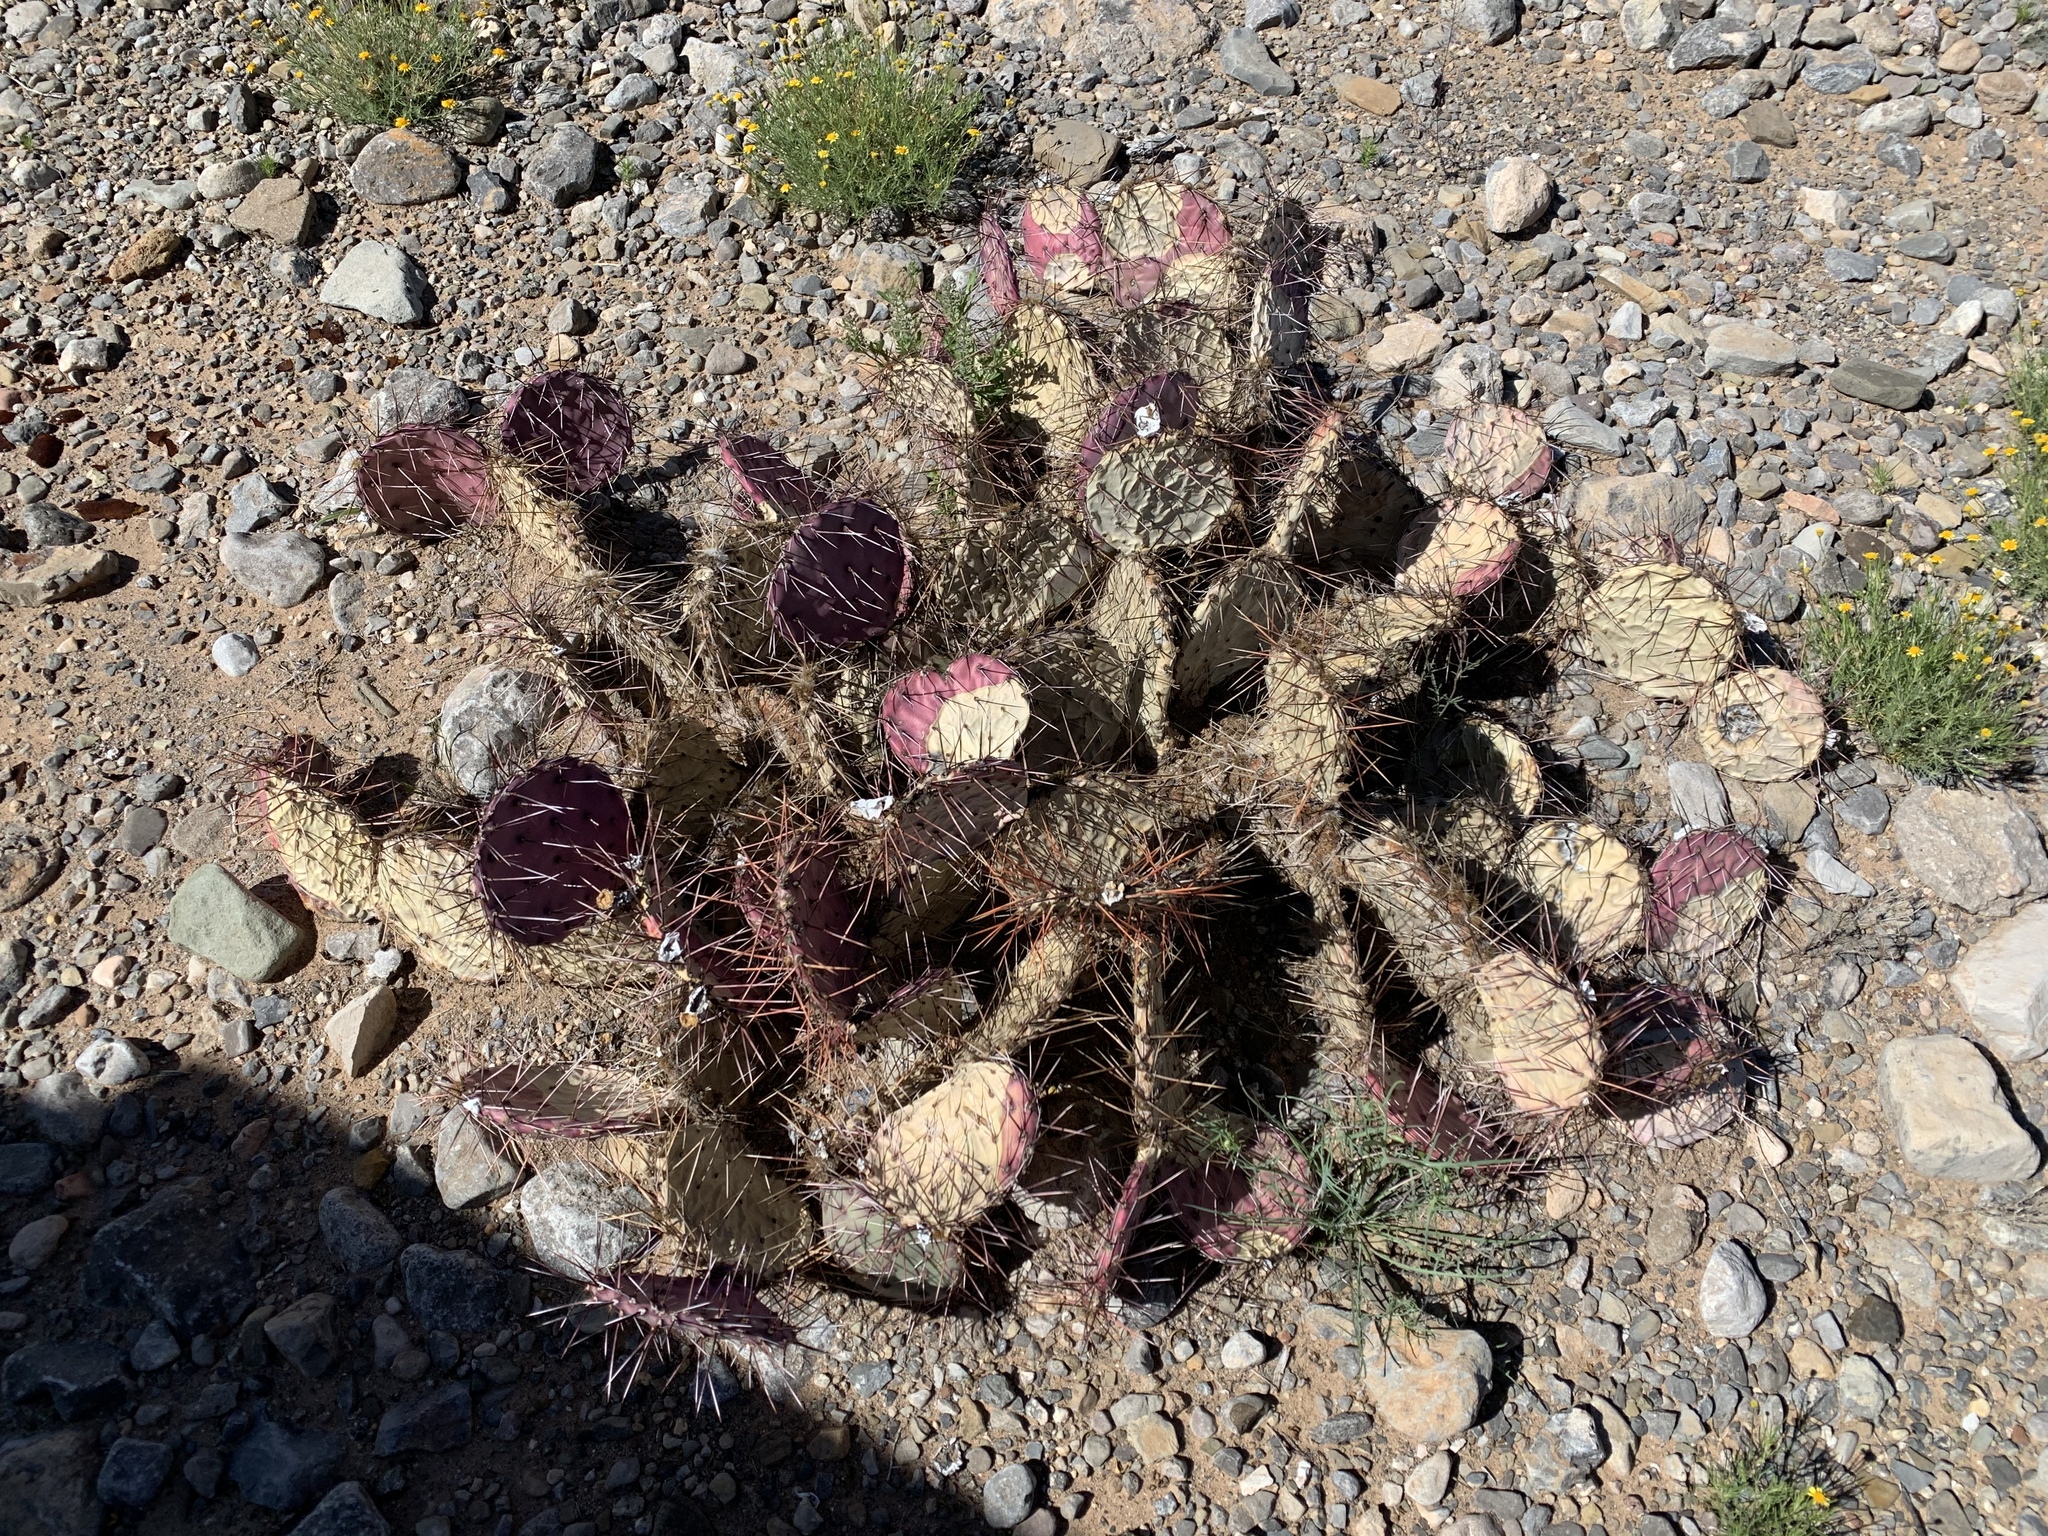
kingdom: Plantae
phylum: Tracheophyta
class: Magnoliopsida
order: Caryophyllales
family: Cactaceae
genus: Opuntia
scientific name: Opuntia macrocentra
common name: Purple prickly-pear
